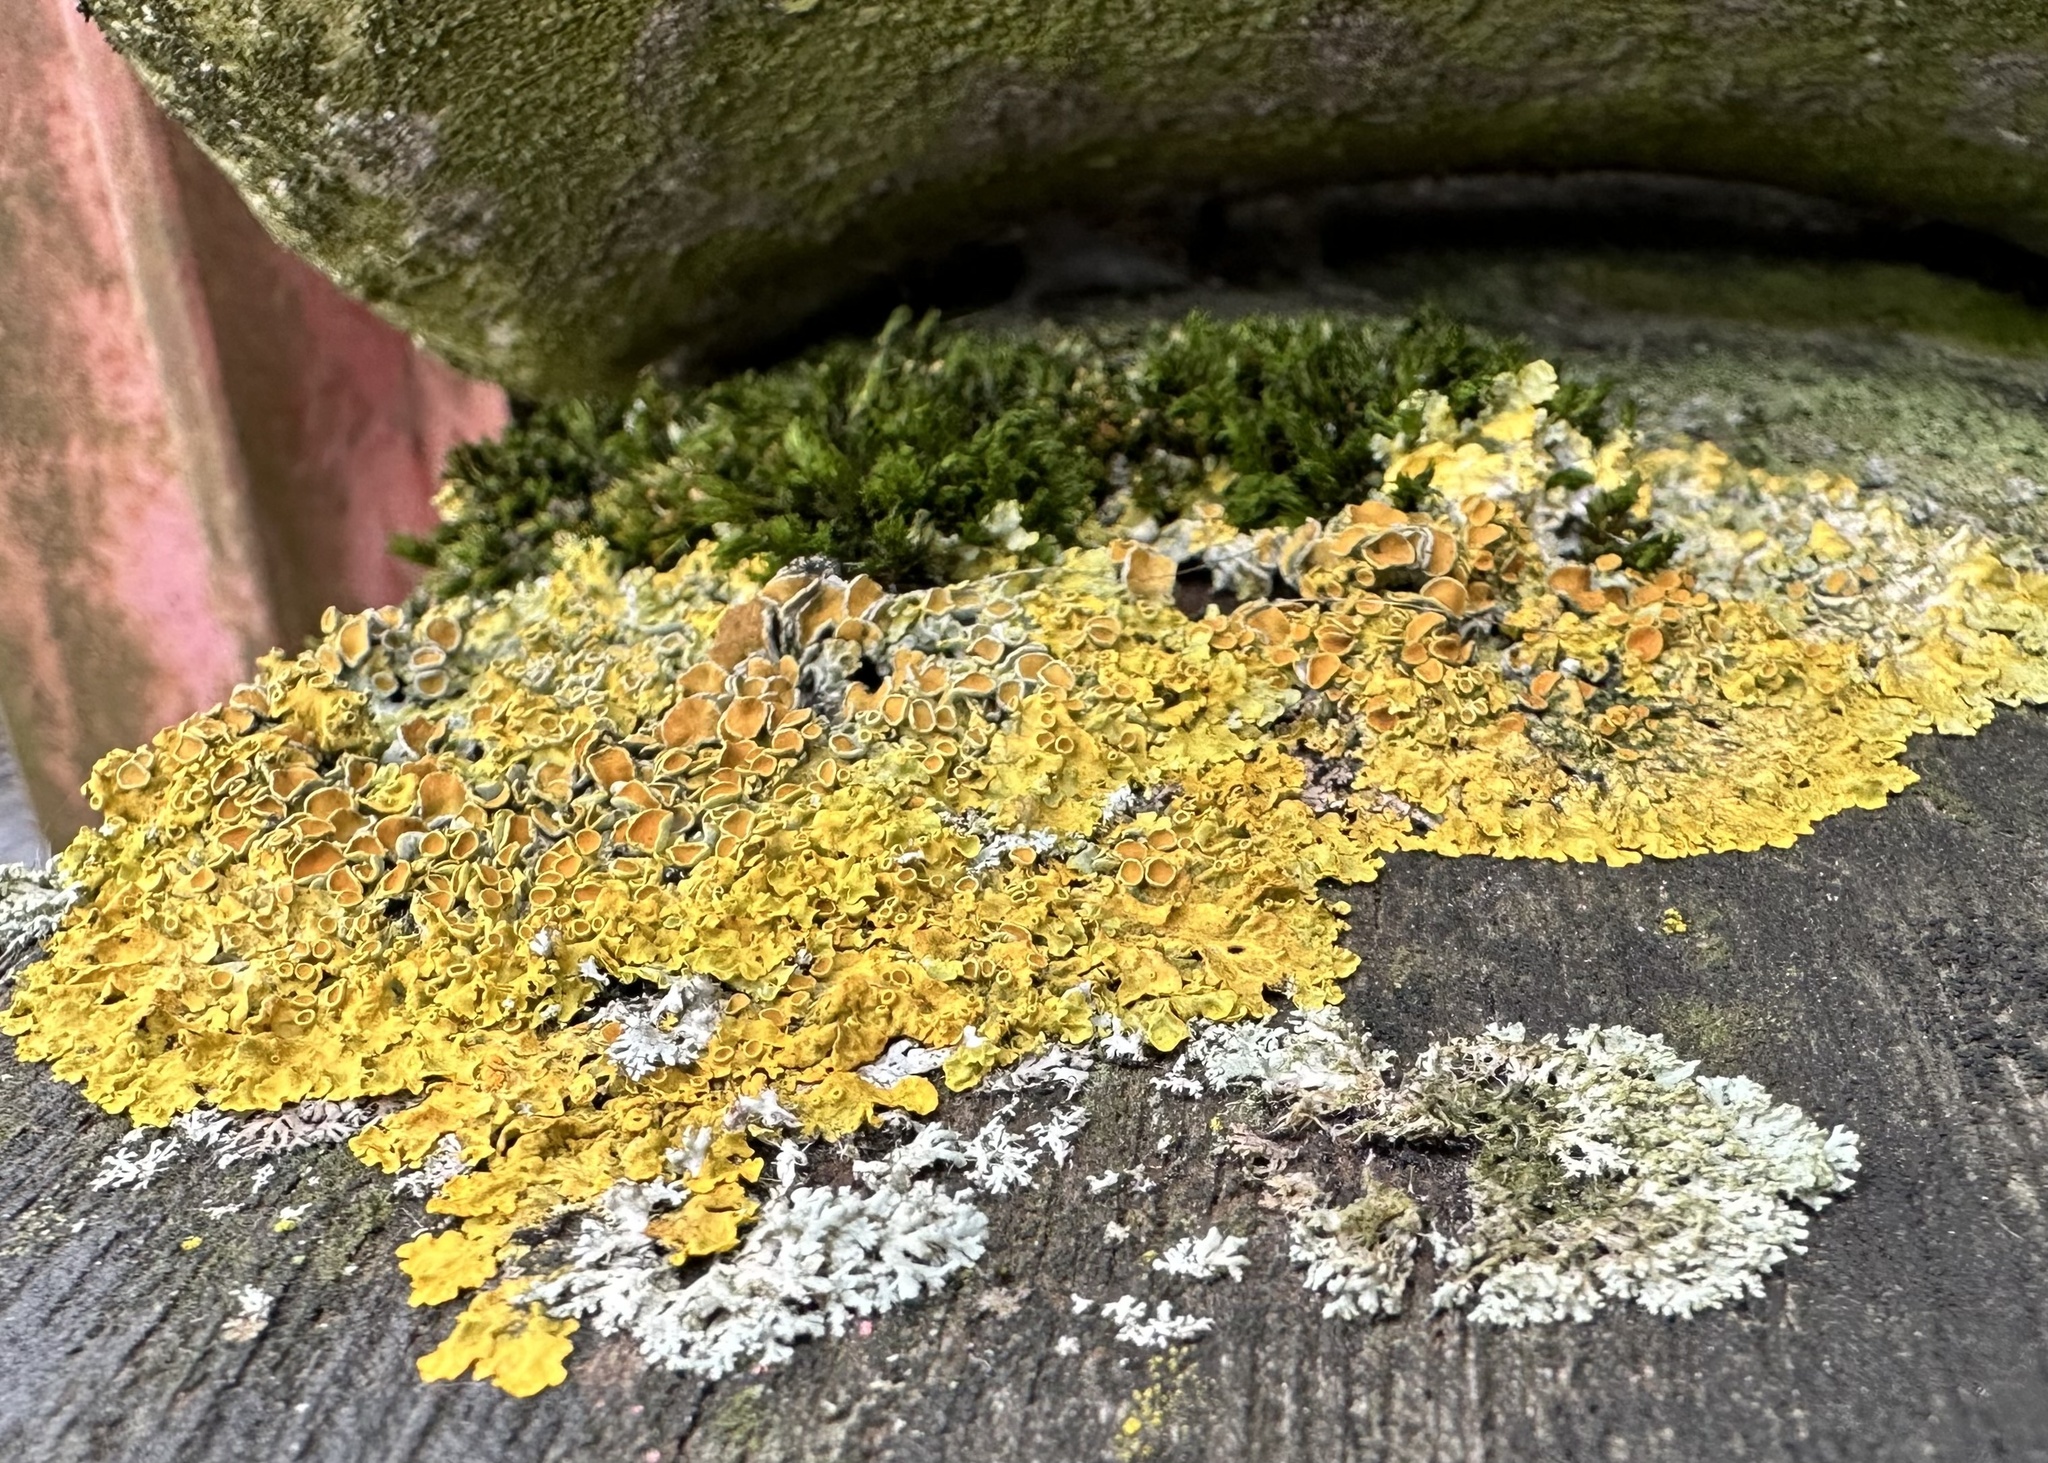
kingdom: Fungi
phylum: Ascomycota
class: Lecanoromycetes
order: Teloschistales
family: Teloschistaceae
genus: Xanthoria
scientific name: Xanthoria parietina
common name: Common orange lichen
